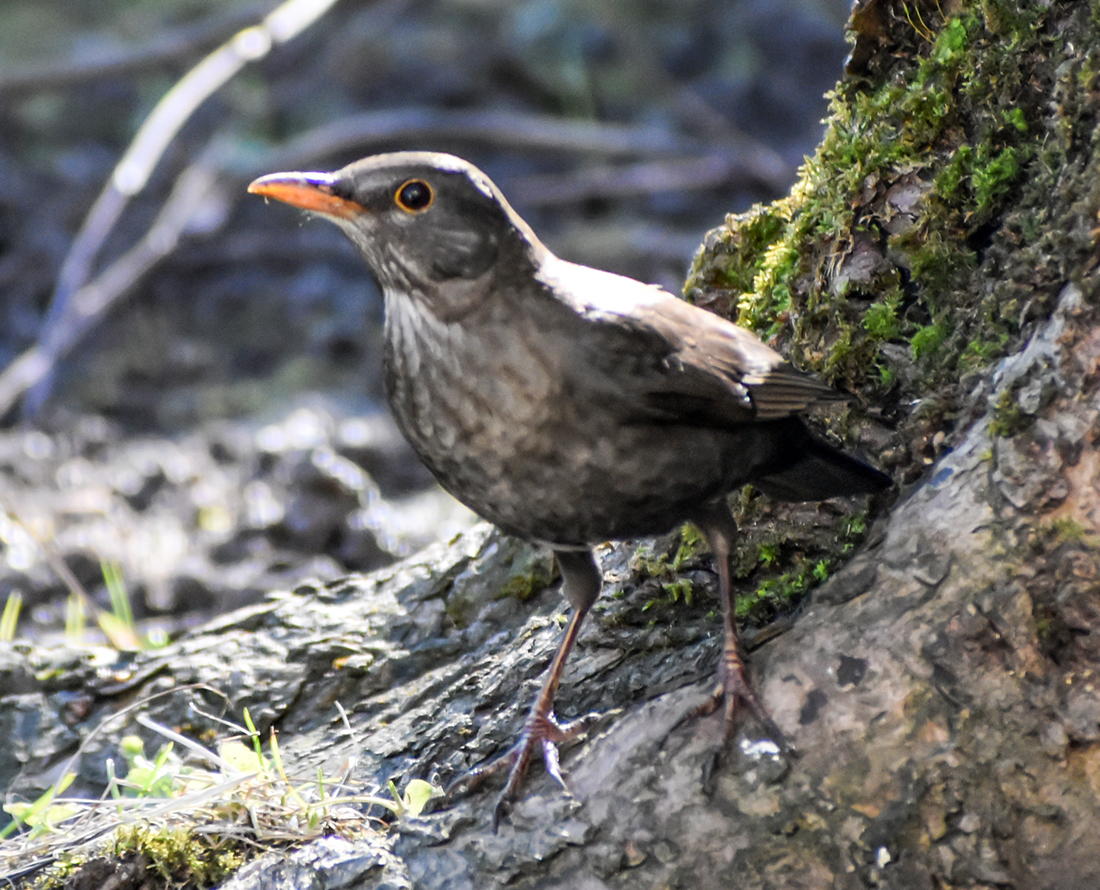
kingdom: Animalia
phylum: Chordata
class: Aves
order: Passeriformes
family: Turdidae
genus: Turdus
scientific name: Turdus merula
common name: Common blackbird
